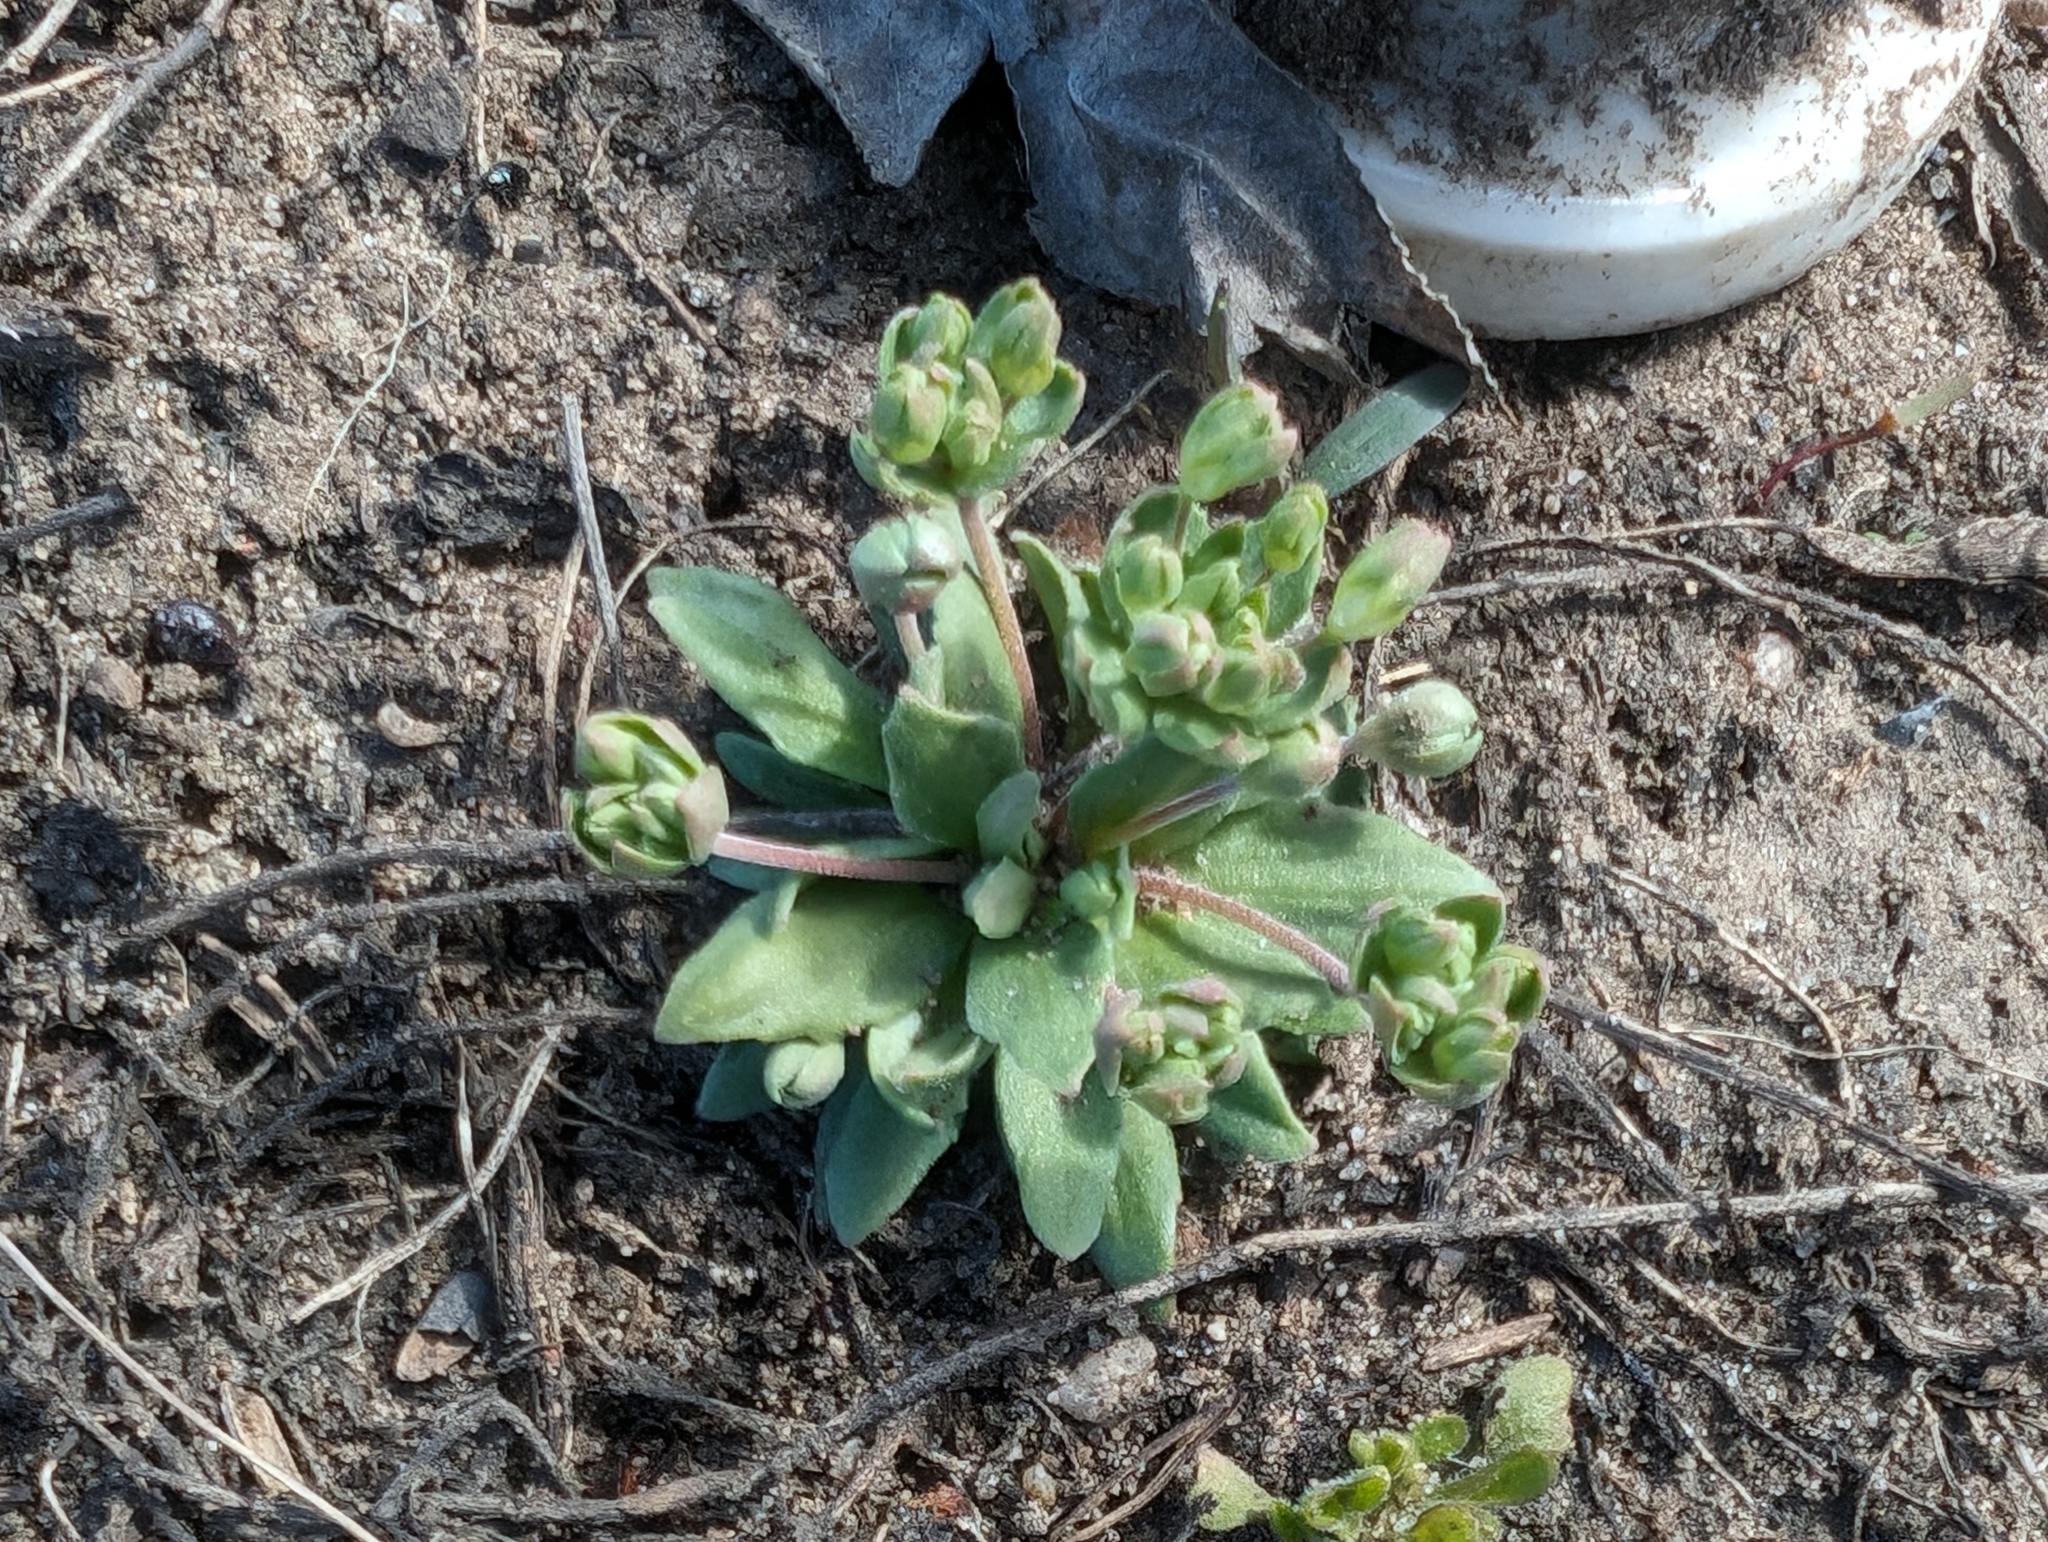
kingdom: Plantae
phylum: Tracheophyta
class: Magnoliopsida
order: Ericales
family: Primulaceae
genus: Androsace
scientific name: Androsace occidentalis
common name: West rock-jasmine
